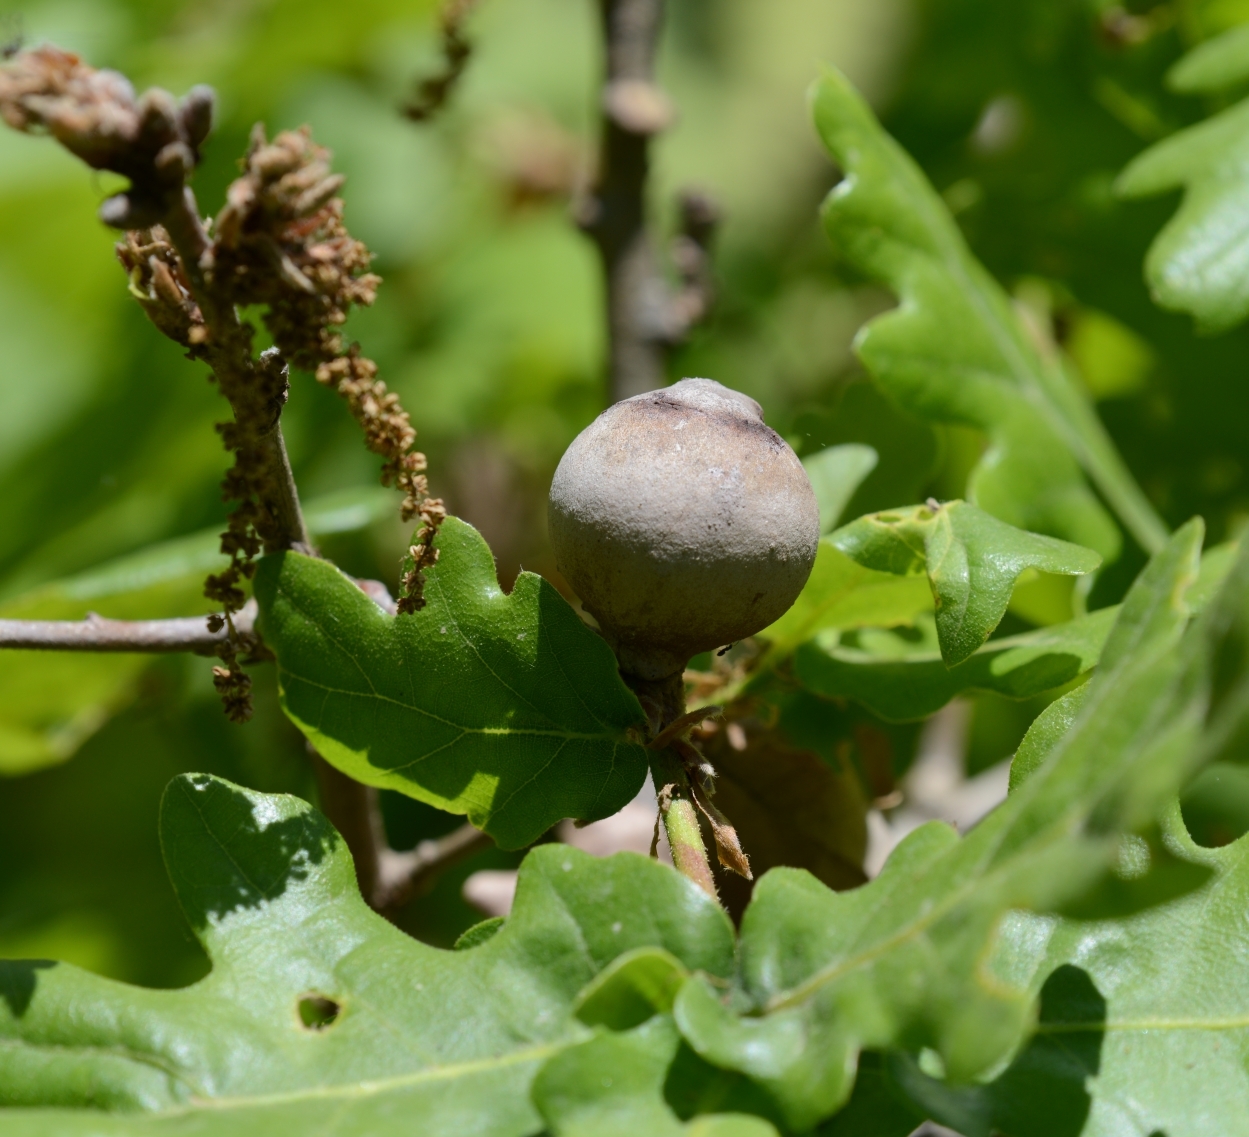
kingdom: Animalia
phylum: Arthropoda
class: Insecta
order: Hymenoptera
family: Cynipidae
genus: Andricus
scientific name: Andricus quercustozae
